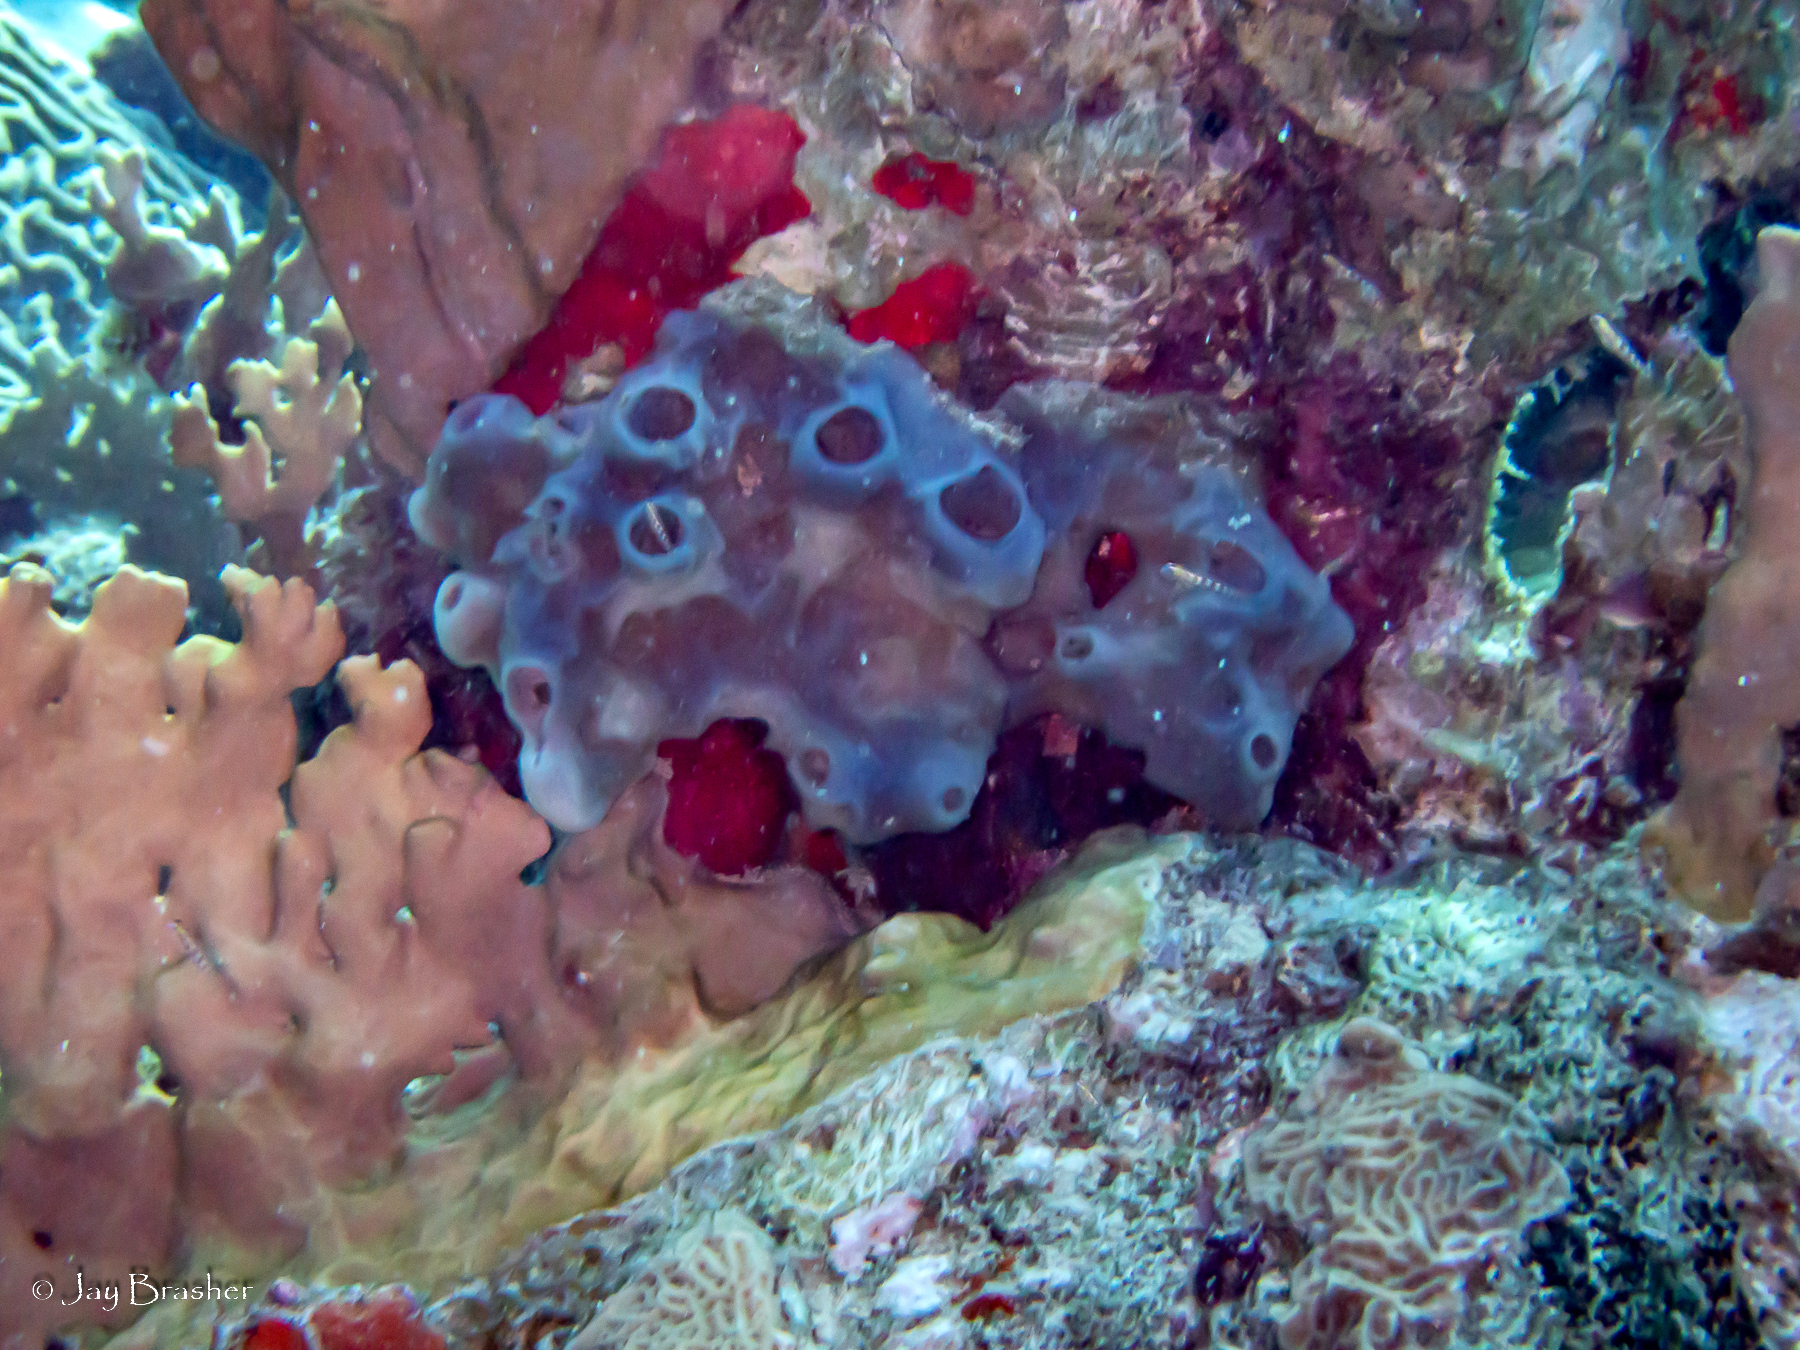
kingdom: Animalia
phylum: Porifera
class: Demospongiae
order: Haplosclerida
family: Callyspongiidae
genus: Callyspongia
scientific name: Callyspongia fallax
